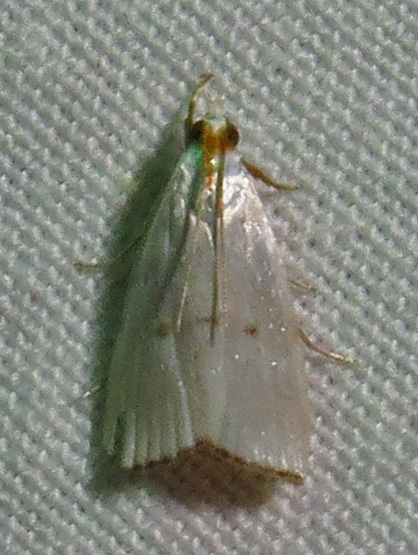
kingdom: Animalia
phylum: Arthropoda
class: Insecta
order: Lepidoptera
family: Crambidae
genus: Argyria
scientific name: Argyria pusillalis
